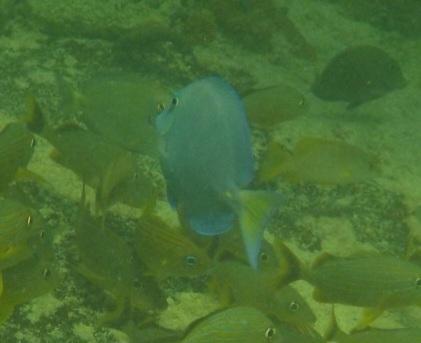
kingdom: Animalia
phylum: Chordata
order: Perciformes
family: Acanthuridae
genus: Acanthurus
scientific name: Acanthurus coeruleus
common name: Blue tang
